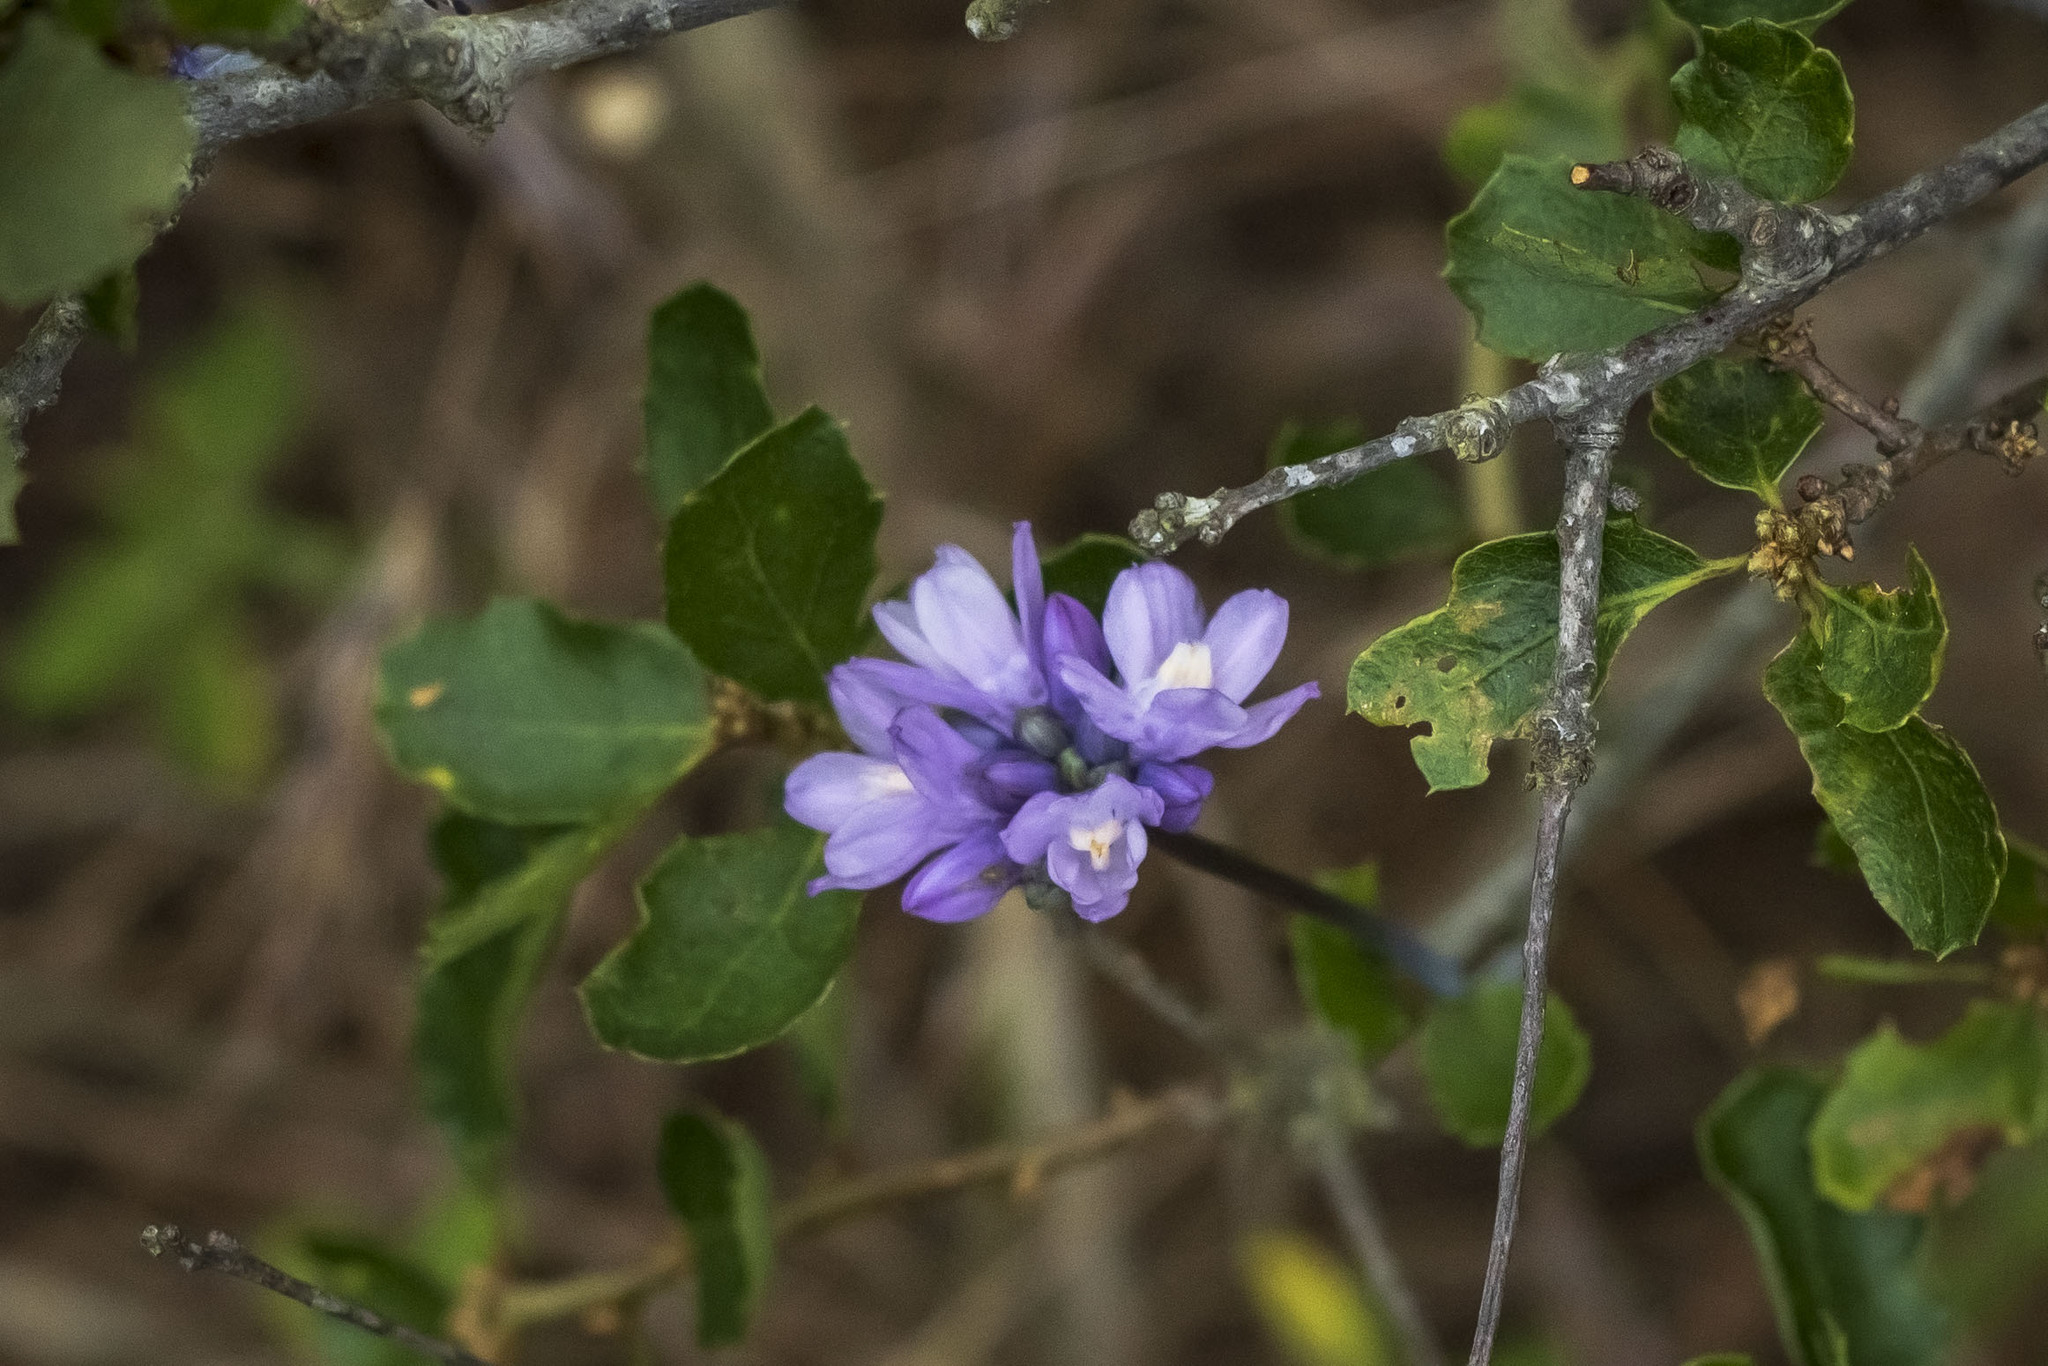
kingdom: Plantae
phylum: Tracheophyta
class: Liliopsida
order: Asparagales
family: Asparagaceae
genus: Dipterostemon
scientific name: Dipterostemon capitatus
